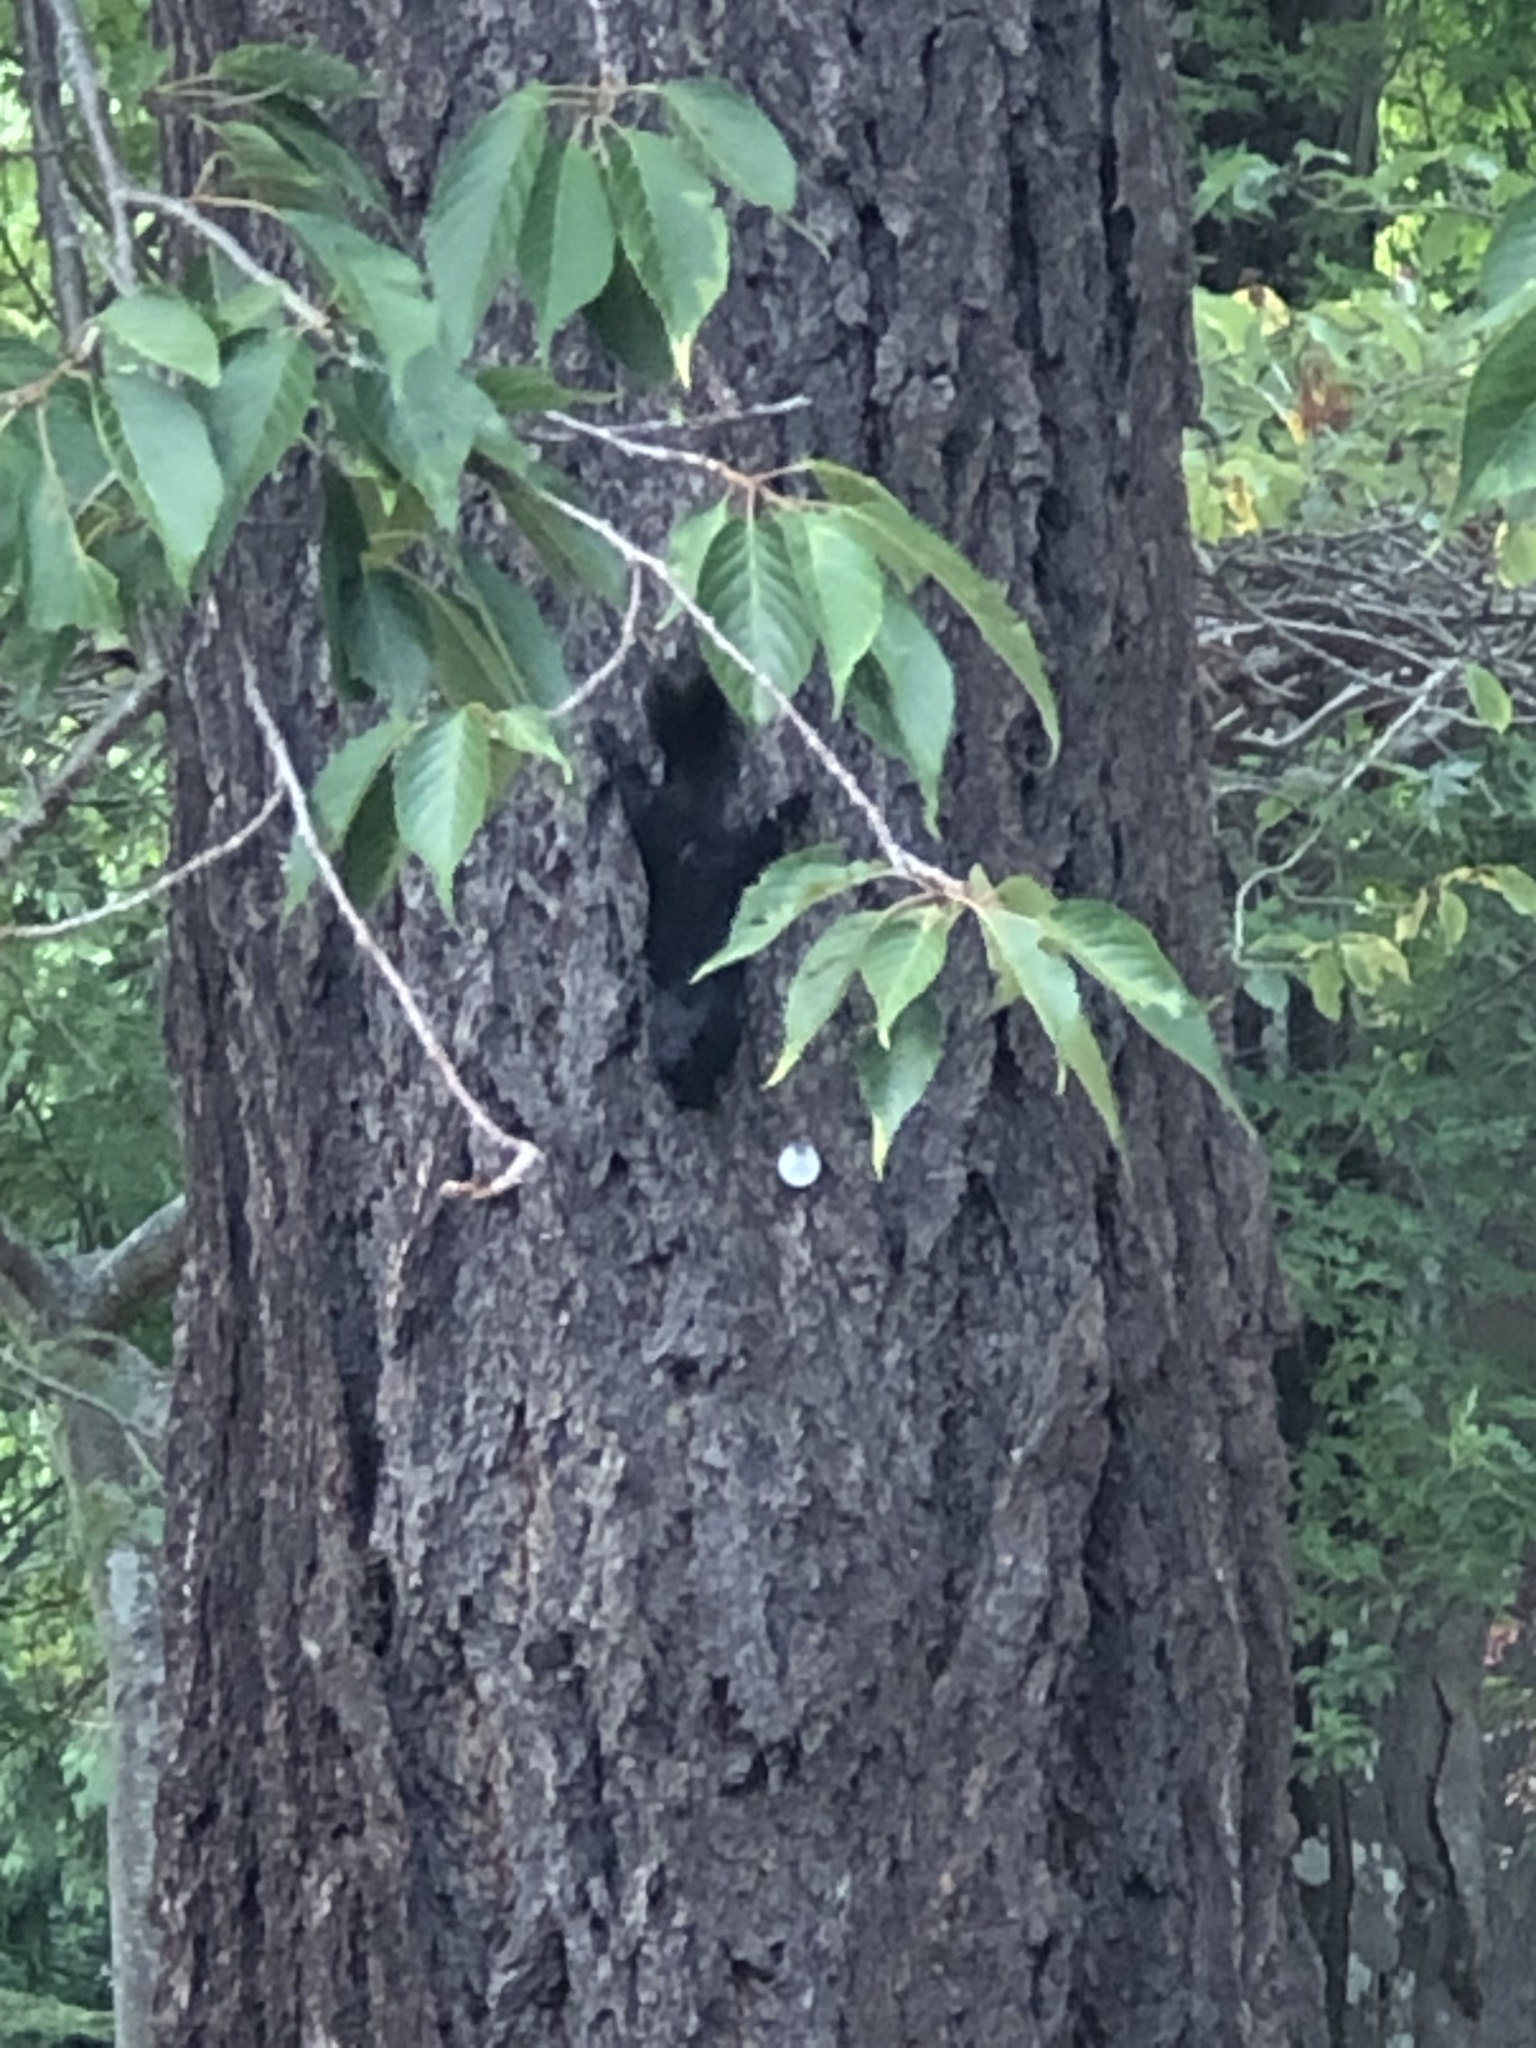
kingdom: Animalia
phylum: Chordata
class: Mammalia
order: Rodentia
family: Sciuridae
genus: Sciurus
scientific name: Sciurus carolinensis
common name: Eastern gray squirrel
